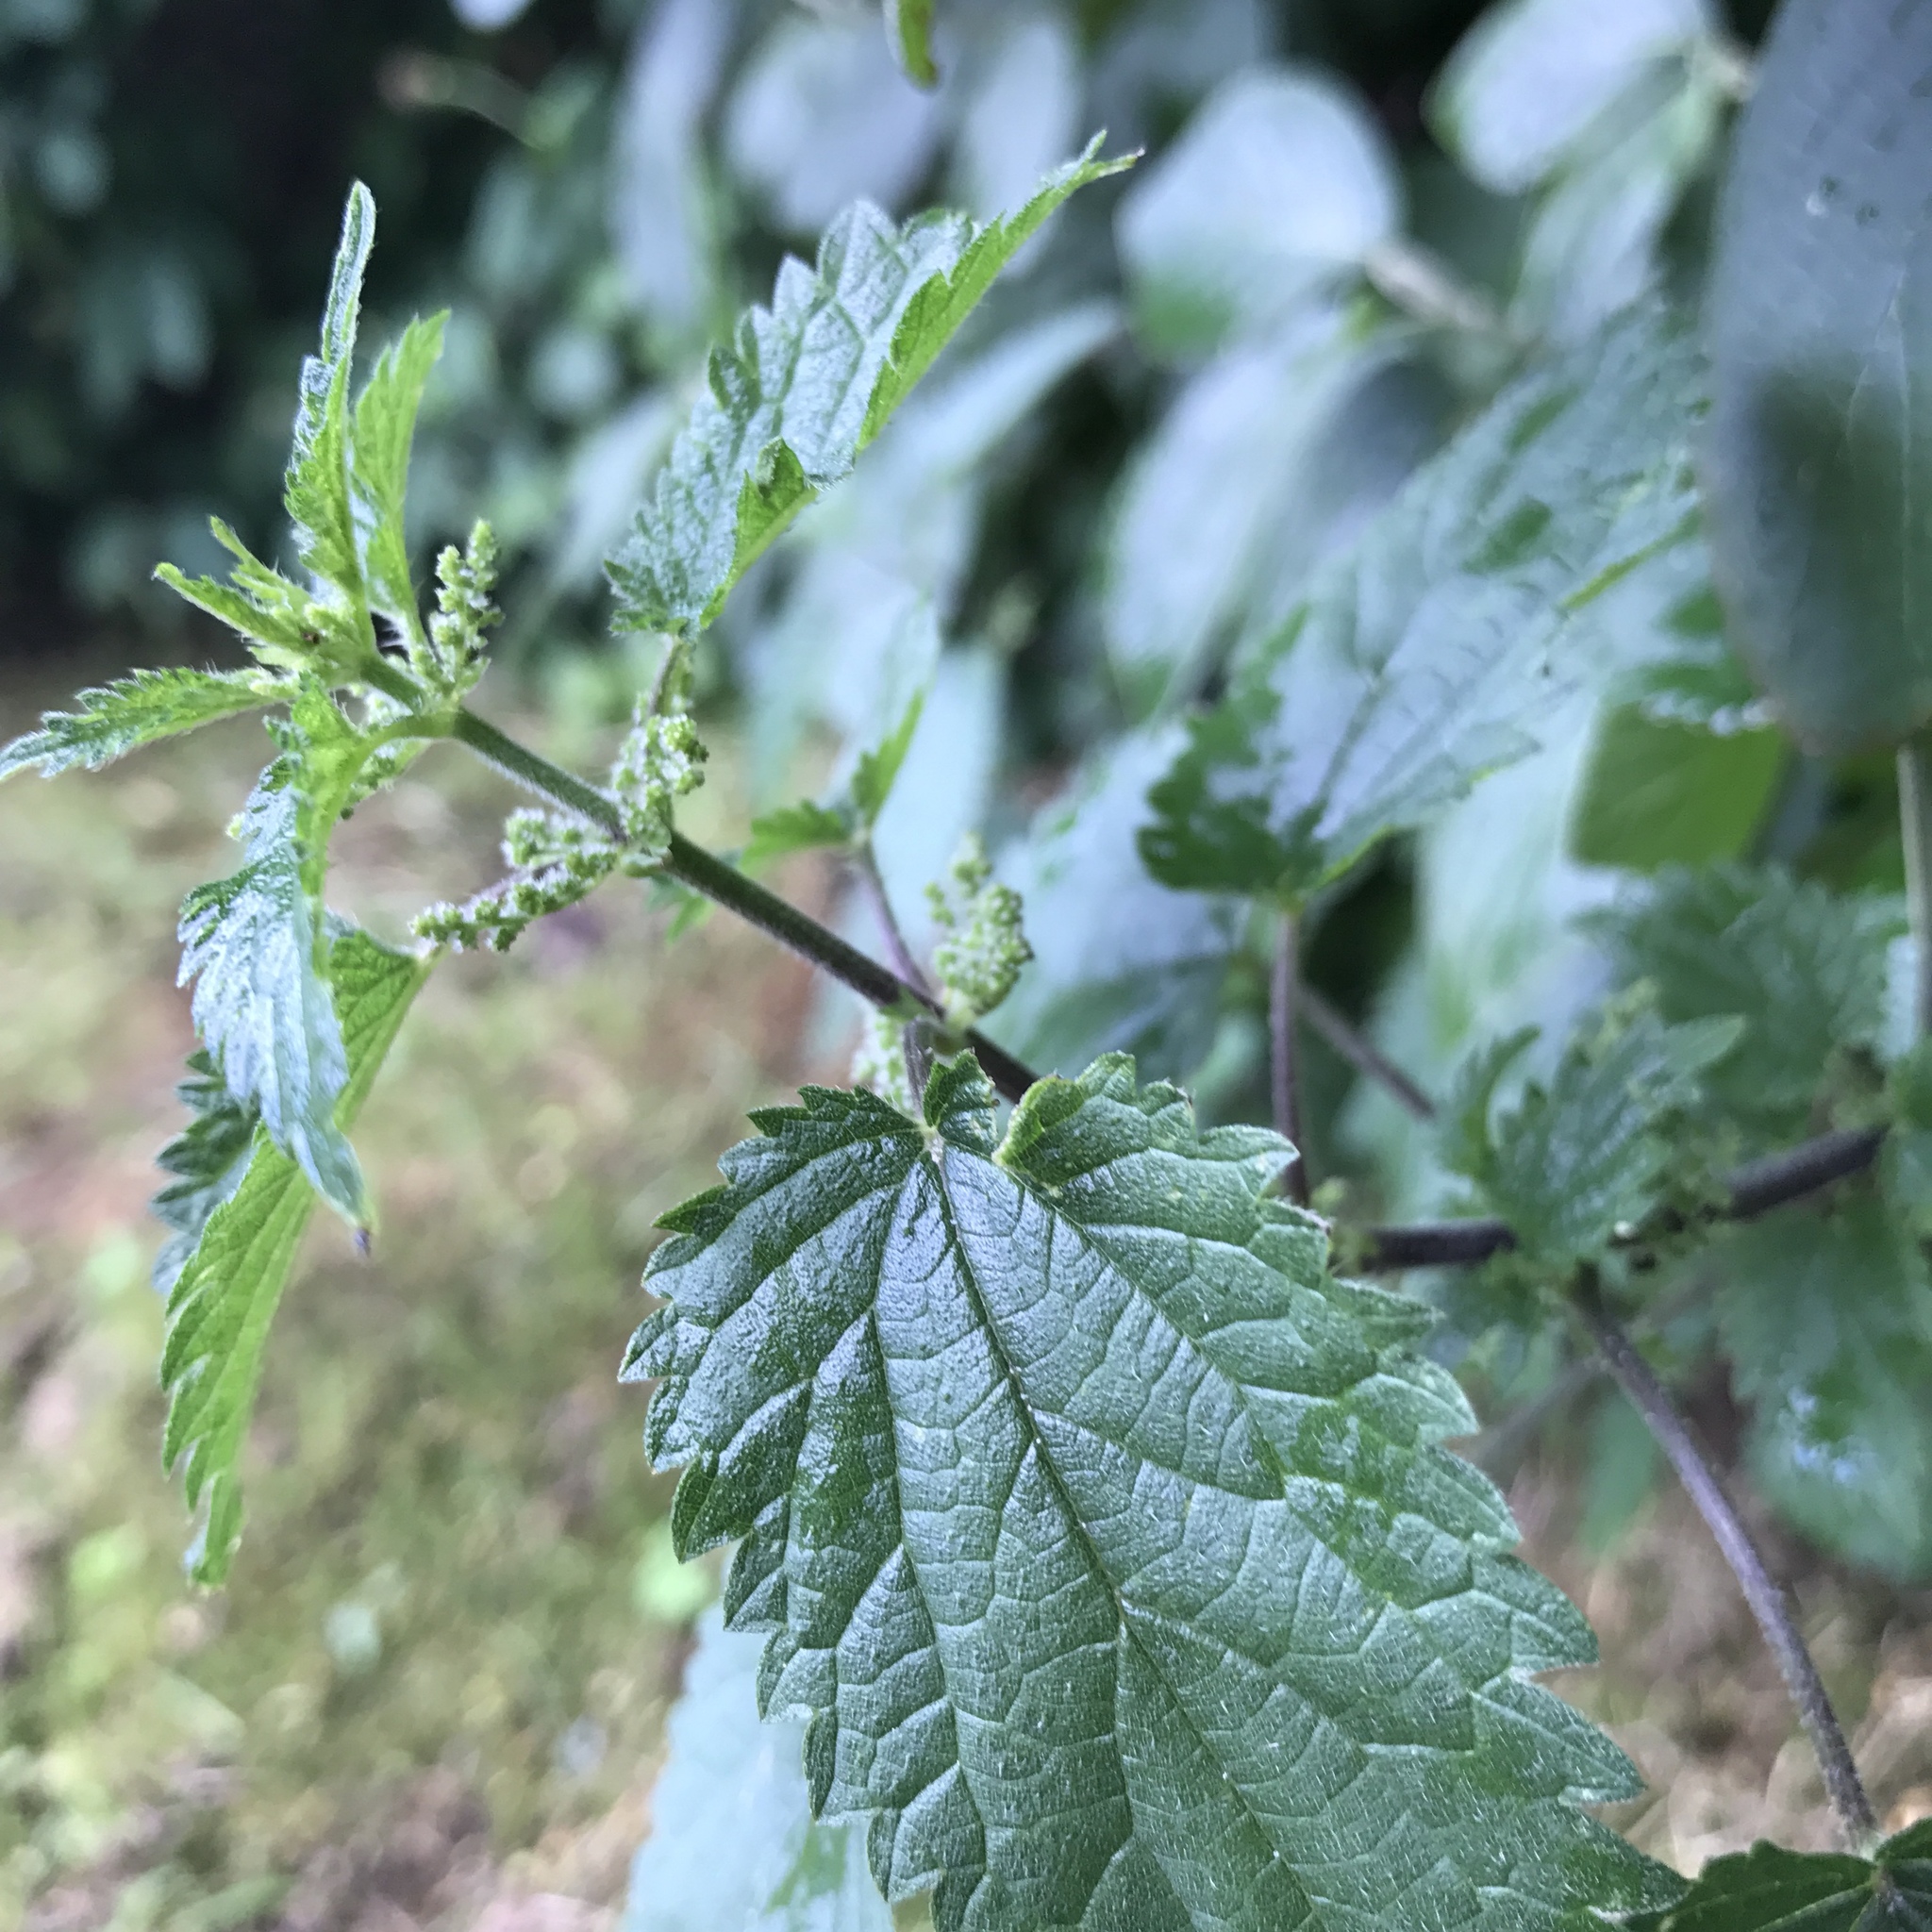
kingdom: Plantae
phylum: Tracheophyta
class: Magnoliopsida
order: Rosales
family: Urticaceae
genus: Urtica
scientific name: Urtica dioica
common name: Common nettle
